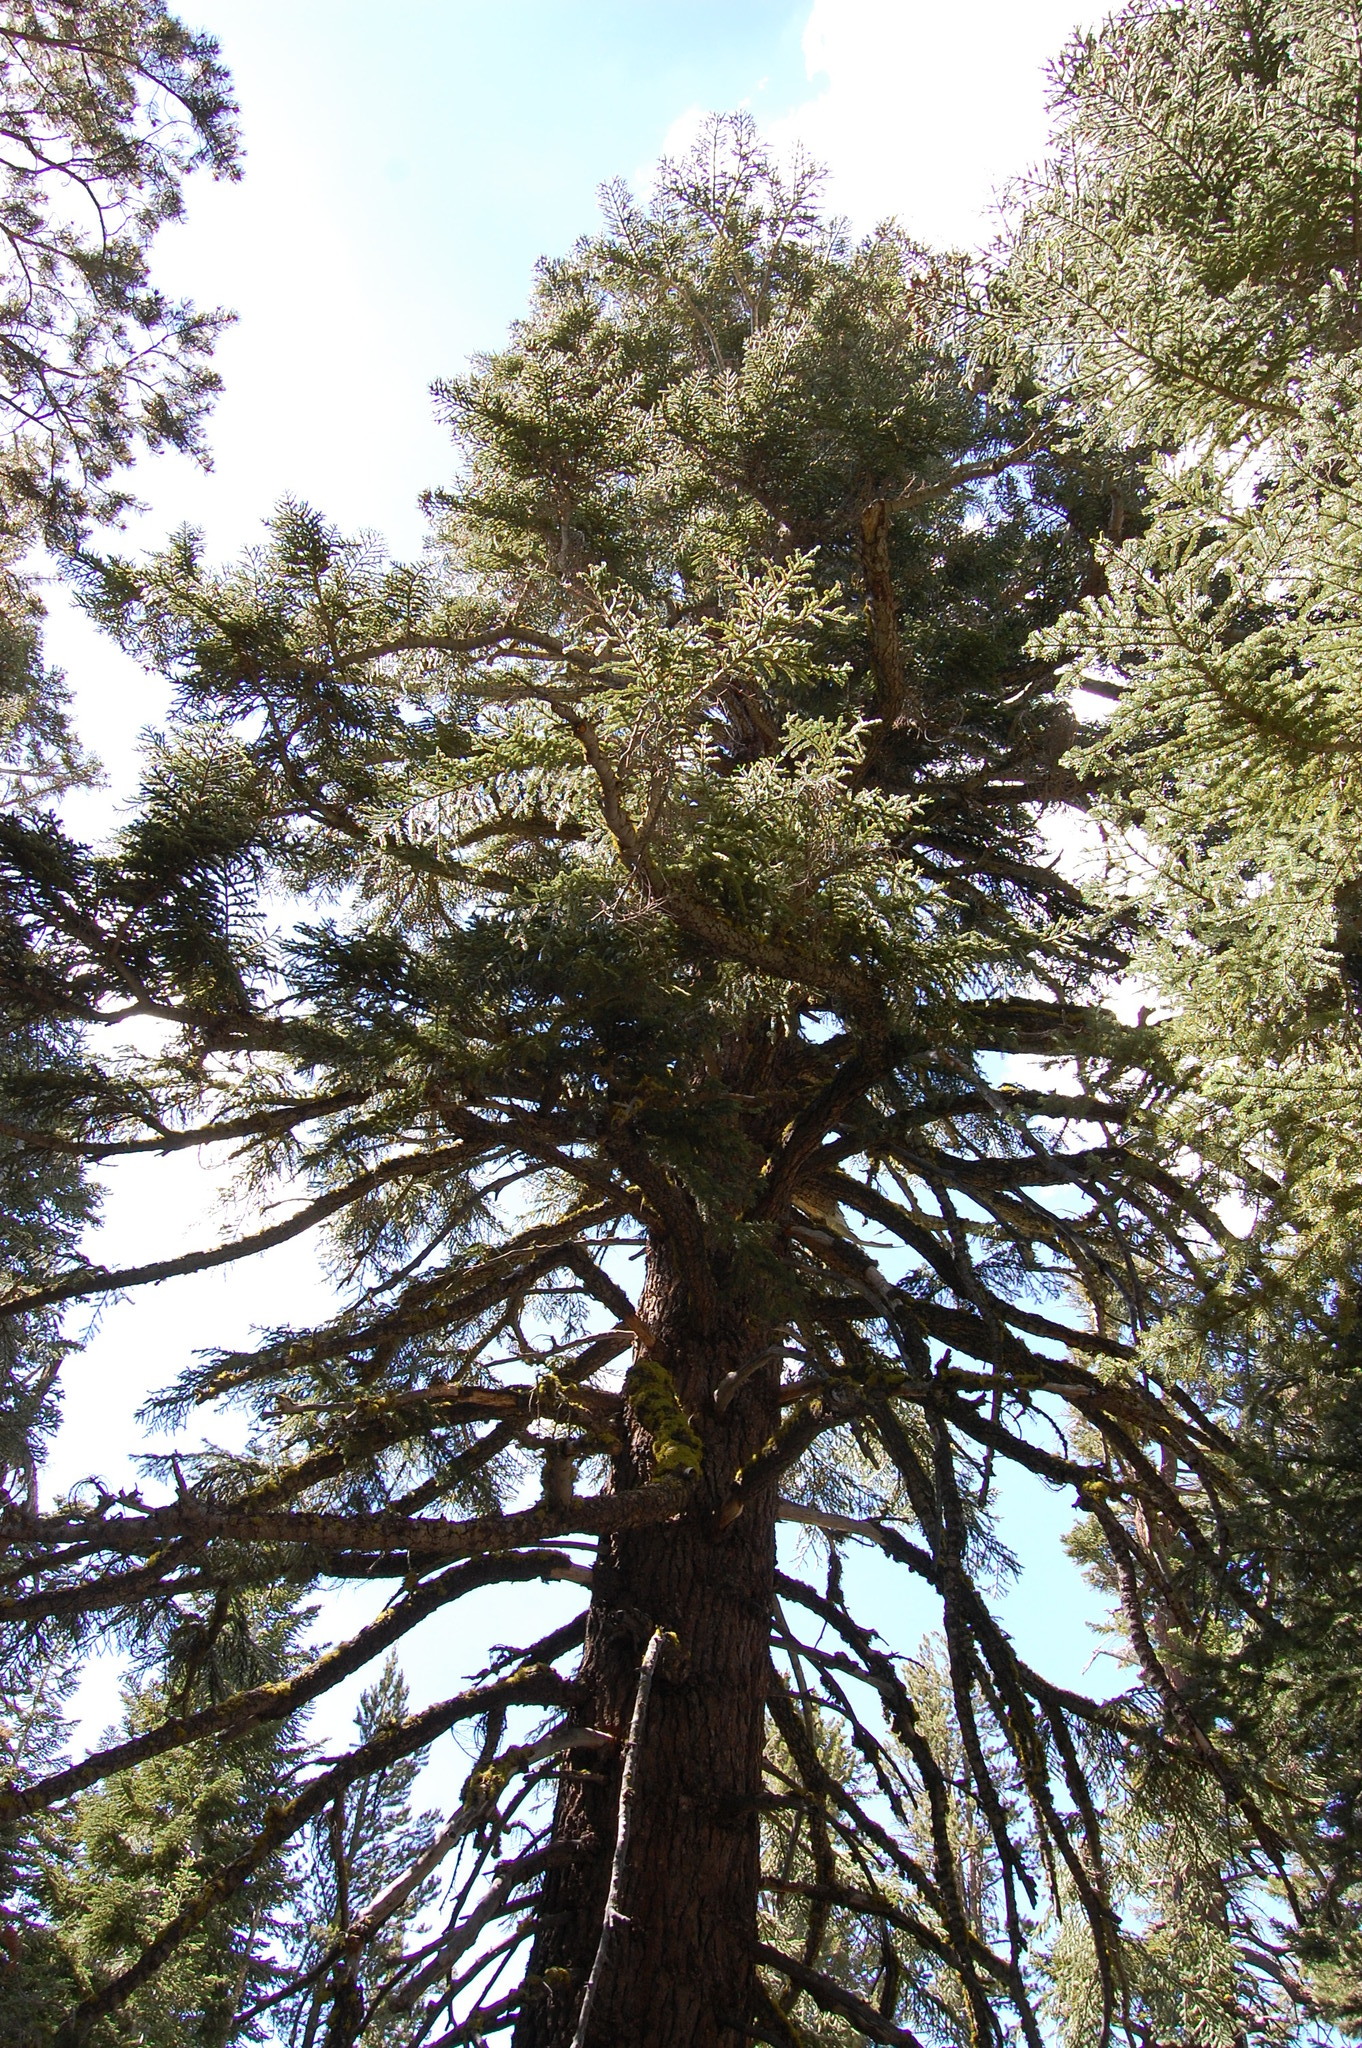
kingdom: Plantae
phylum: Tracheophyta
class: Pinopsida
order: Pinales
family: Pinaceae
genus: Abies
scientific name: Abies magnifica bis
